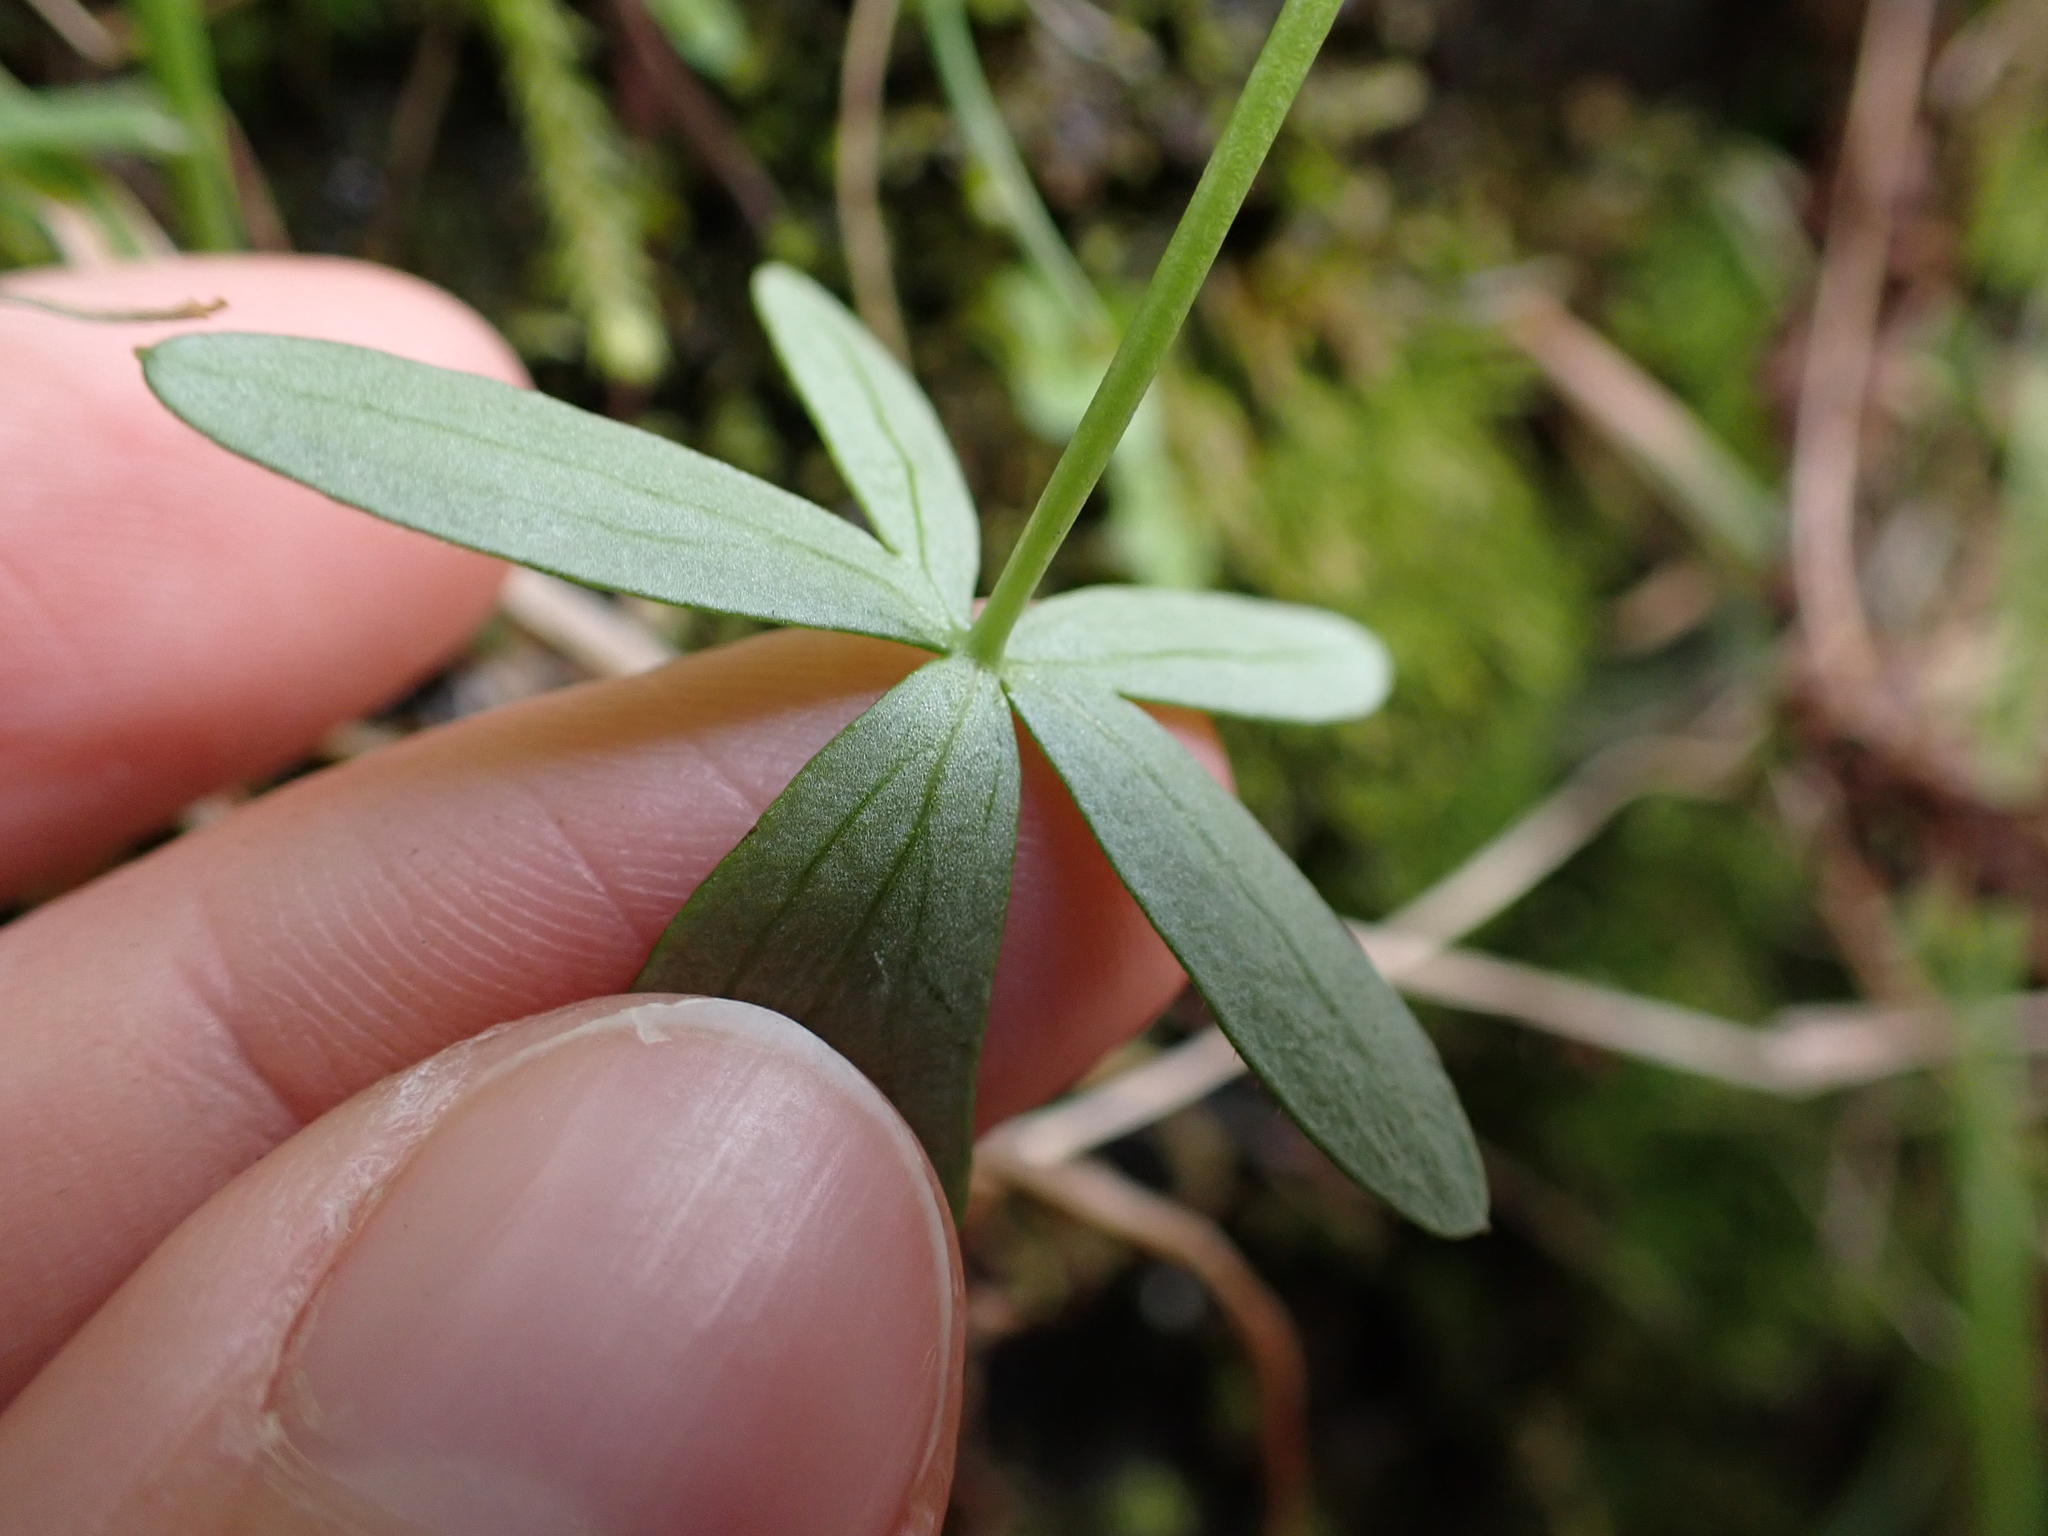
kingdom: Plantae
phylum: Tracheophyta
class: Magnoliopsida
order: Ranunculales
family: Ranunculaceae
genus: Delphinium
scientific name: Delphinium menziesii
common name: Menzies's larkspur
